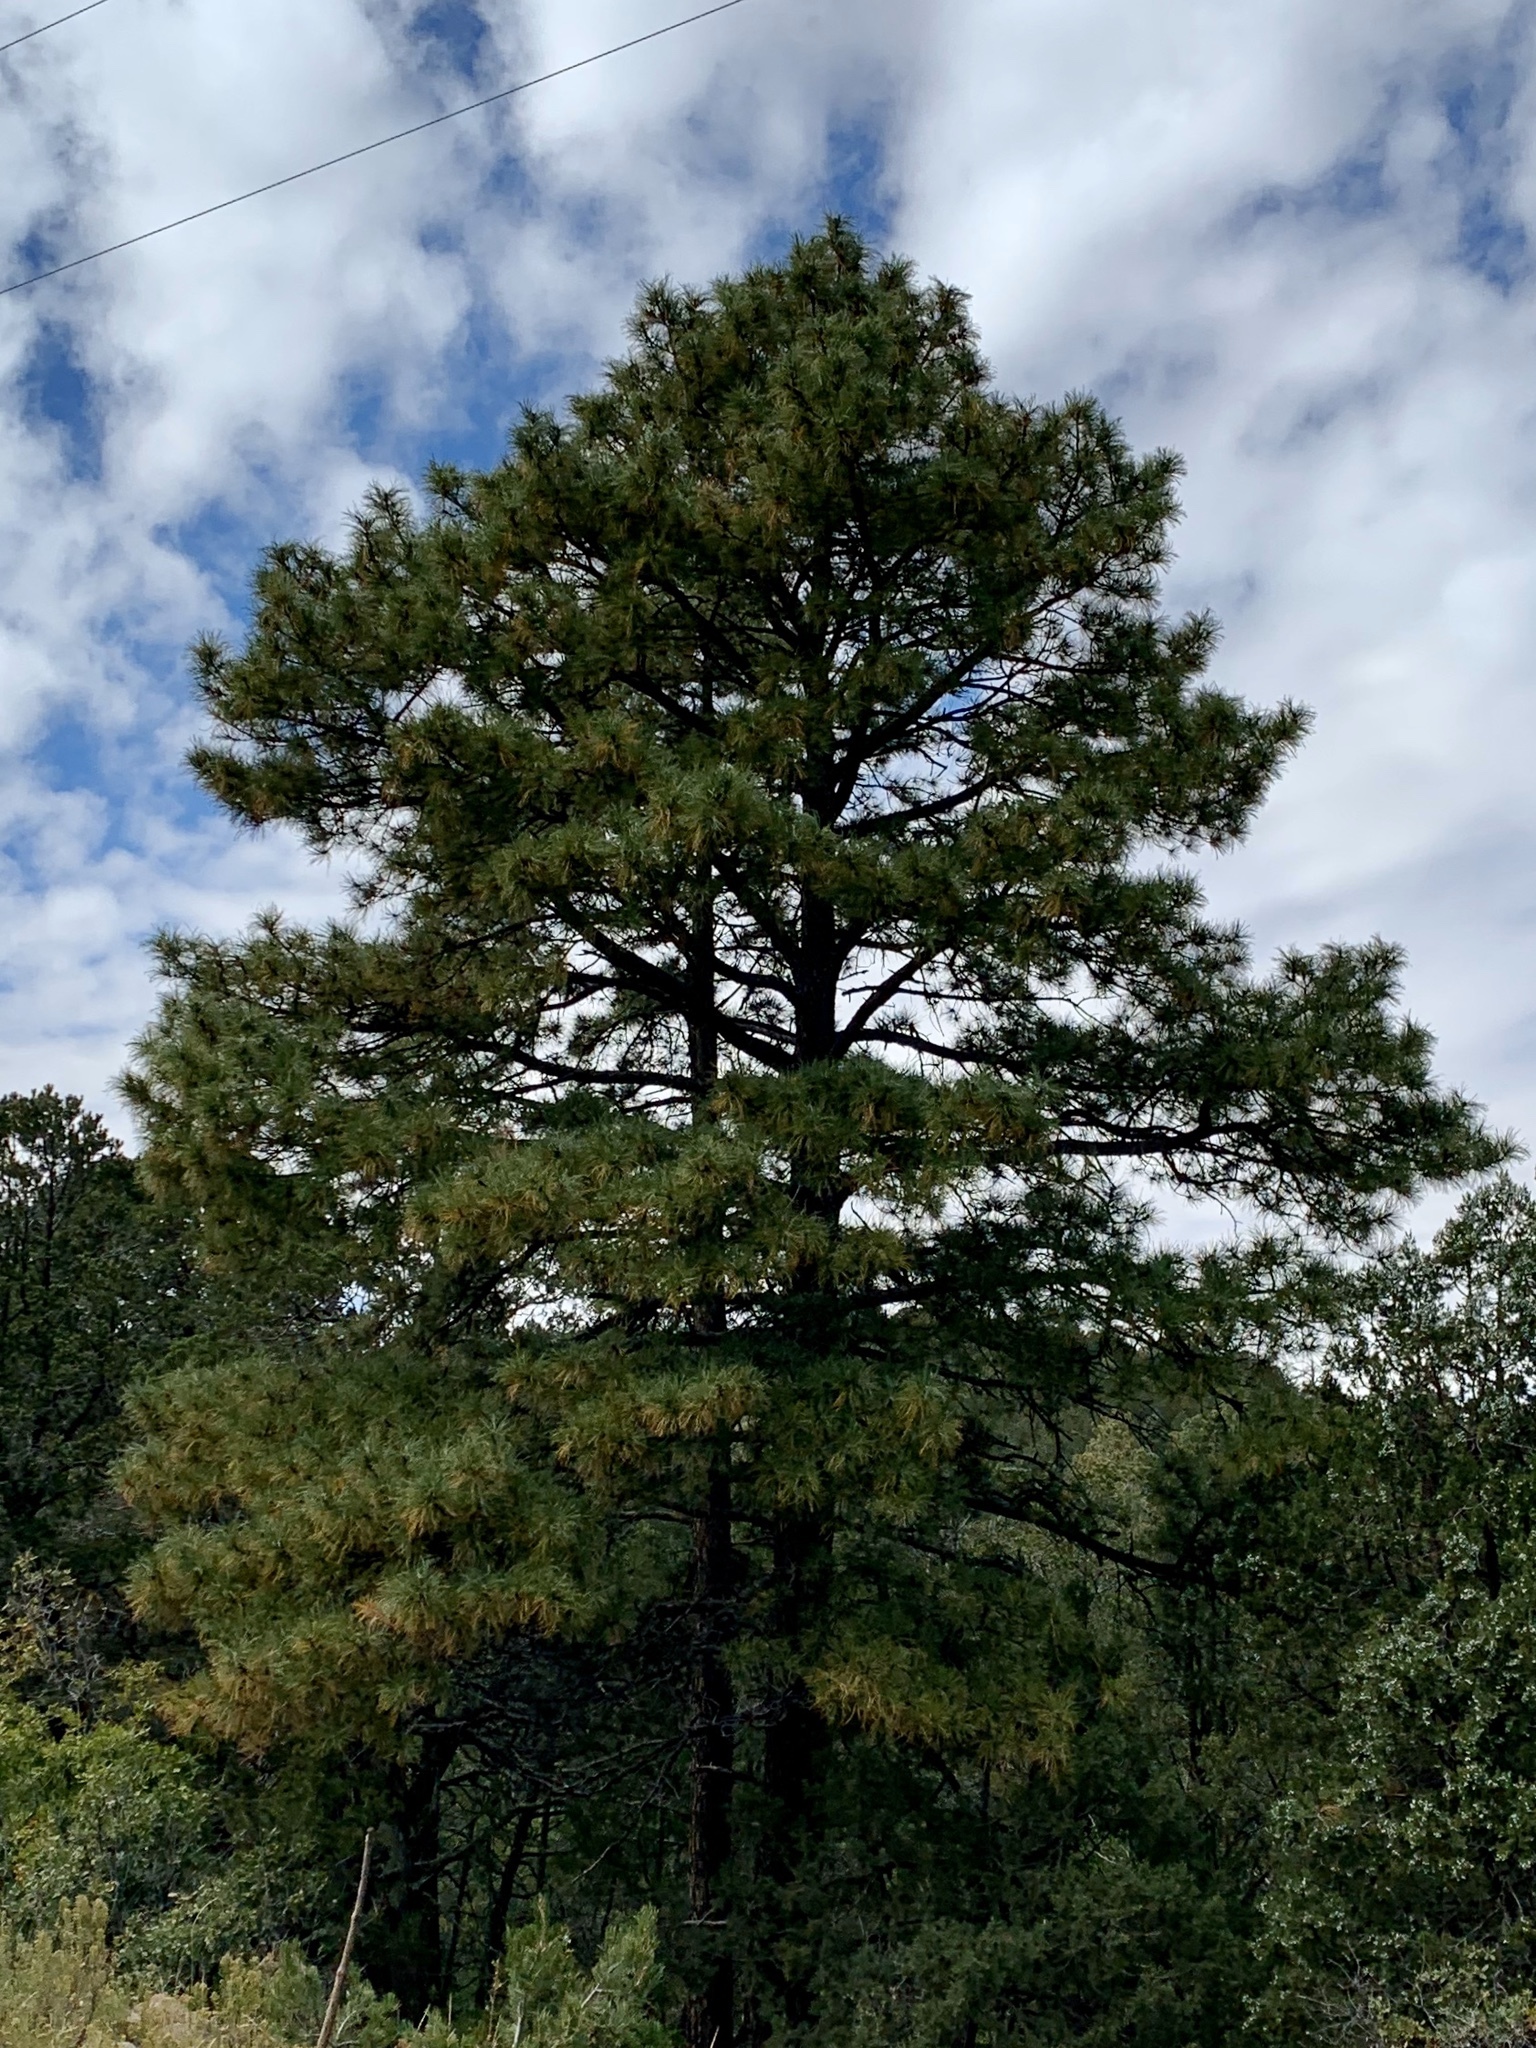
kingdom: Plantae
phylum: Tracheophyta
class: Pinopsida
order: Pinales
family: Pinaceae
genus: Pinus
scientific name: Pinus ponderosa
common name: Western yellow-pine
